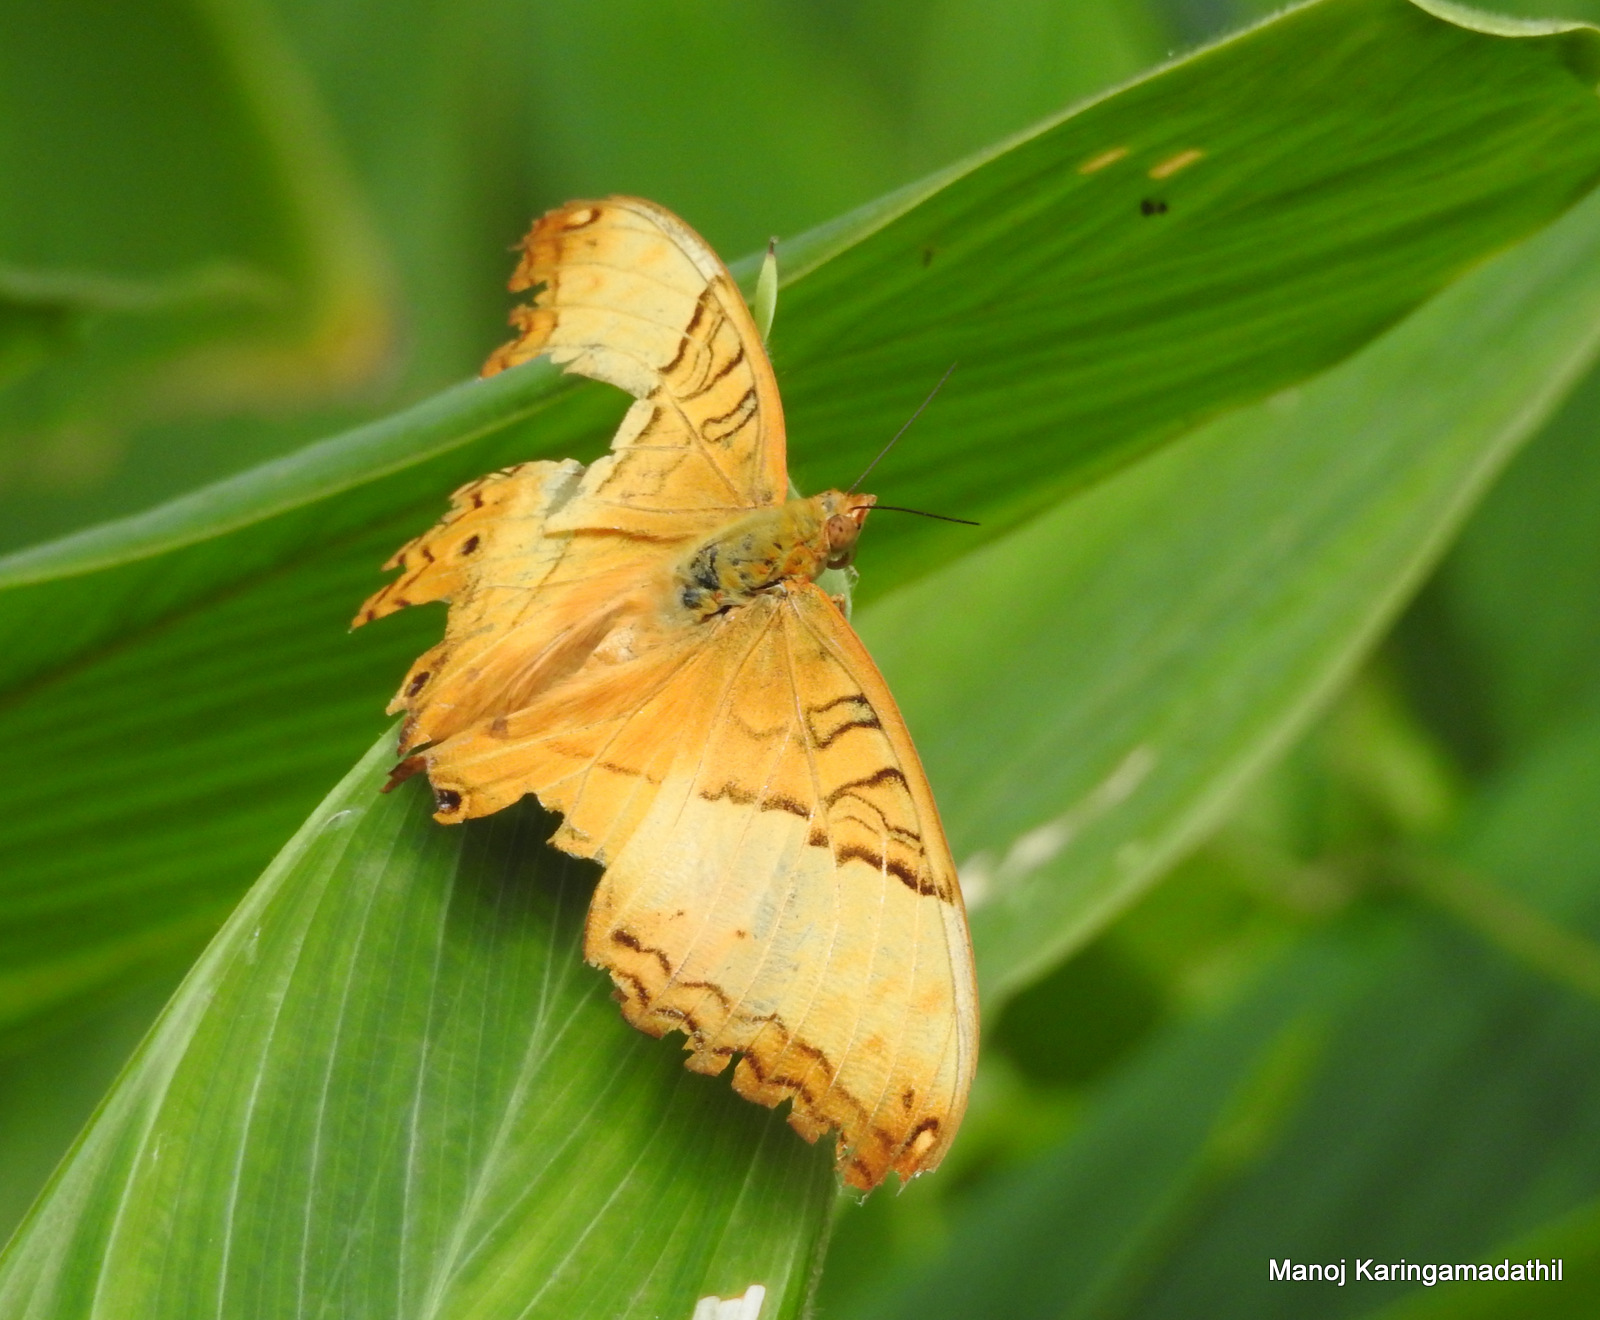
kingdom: Animalia
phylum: Arthropoda
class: Insecta
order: Lepidoptera
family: Nymphalidae
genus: Vindula
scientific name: Vindula erota
